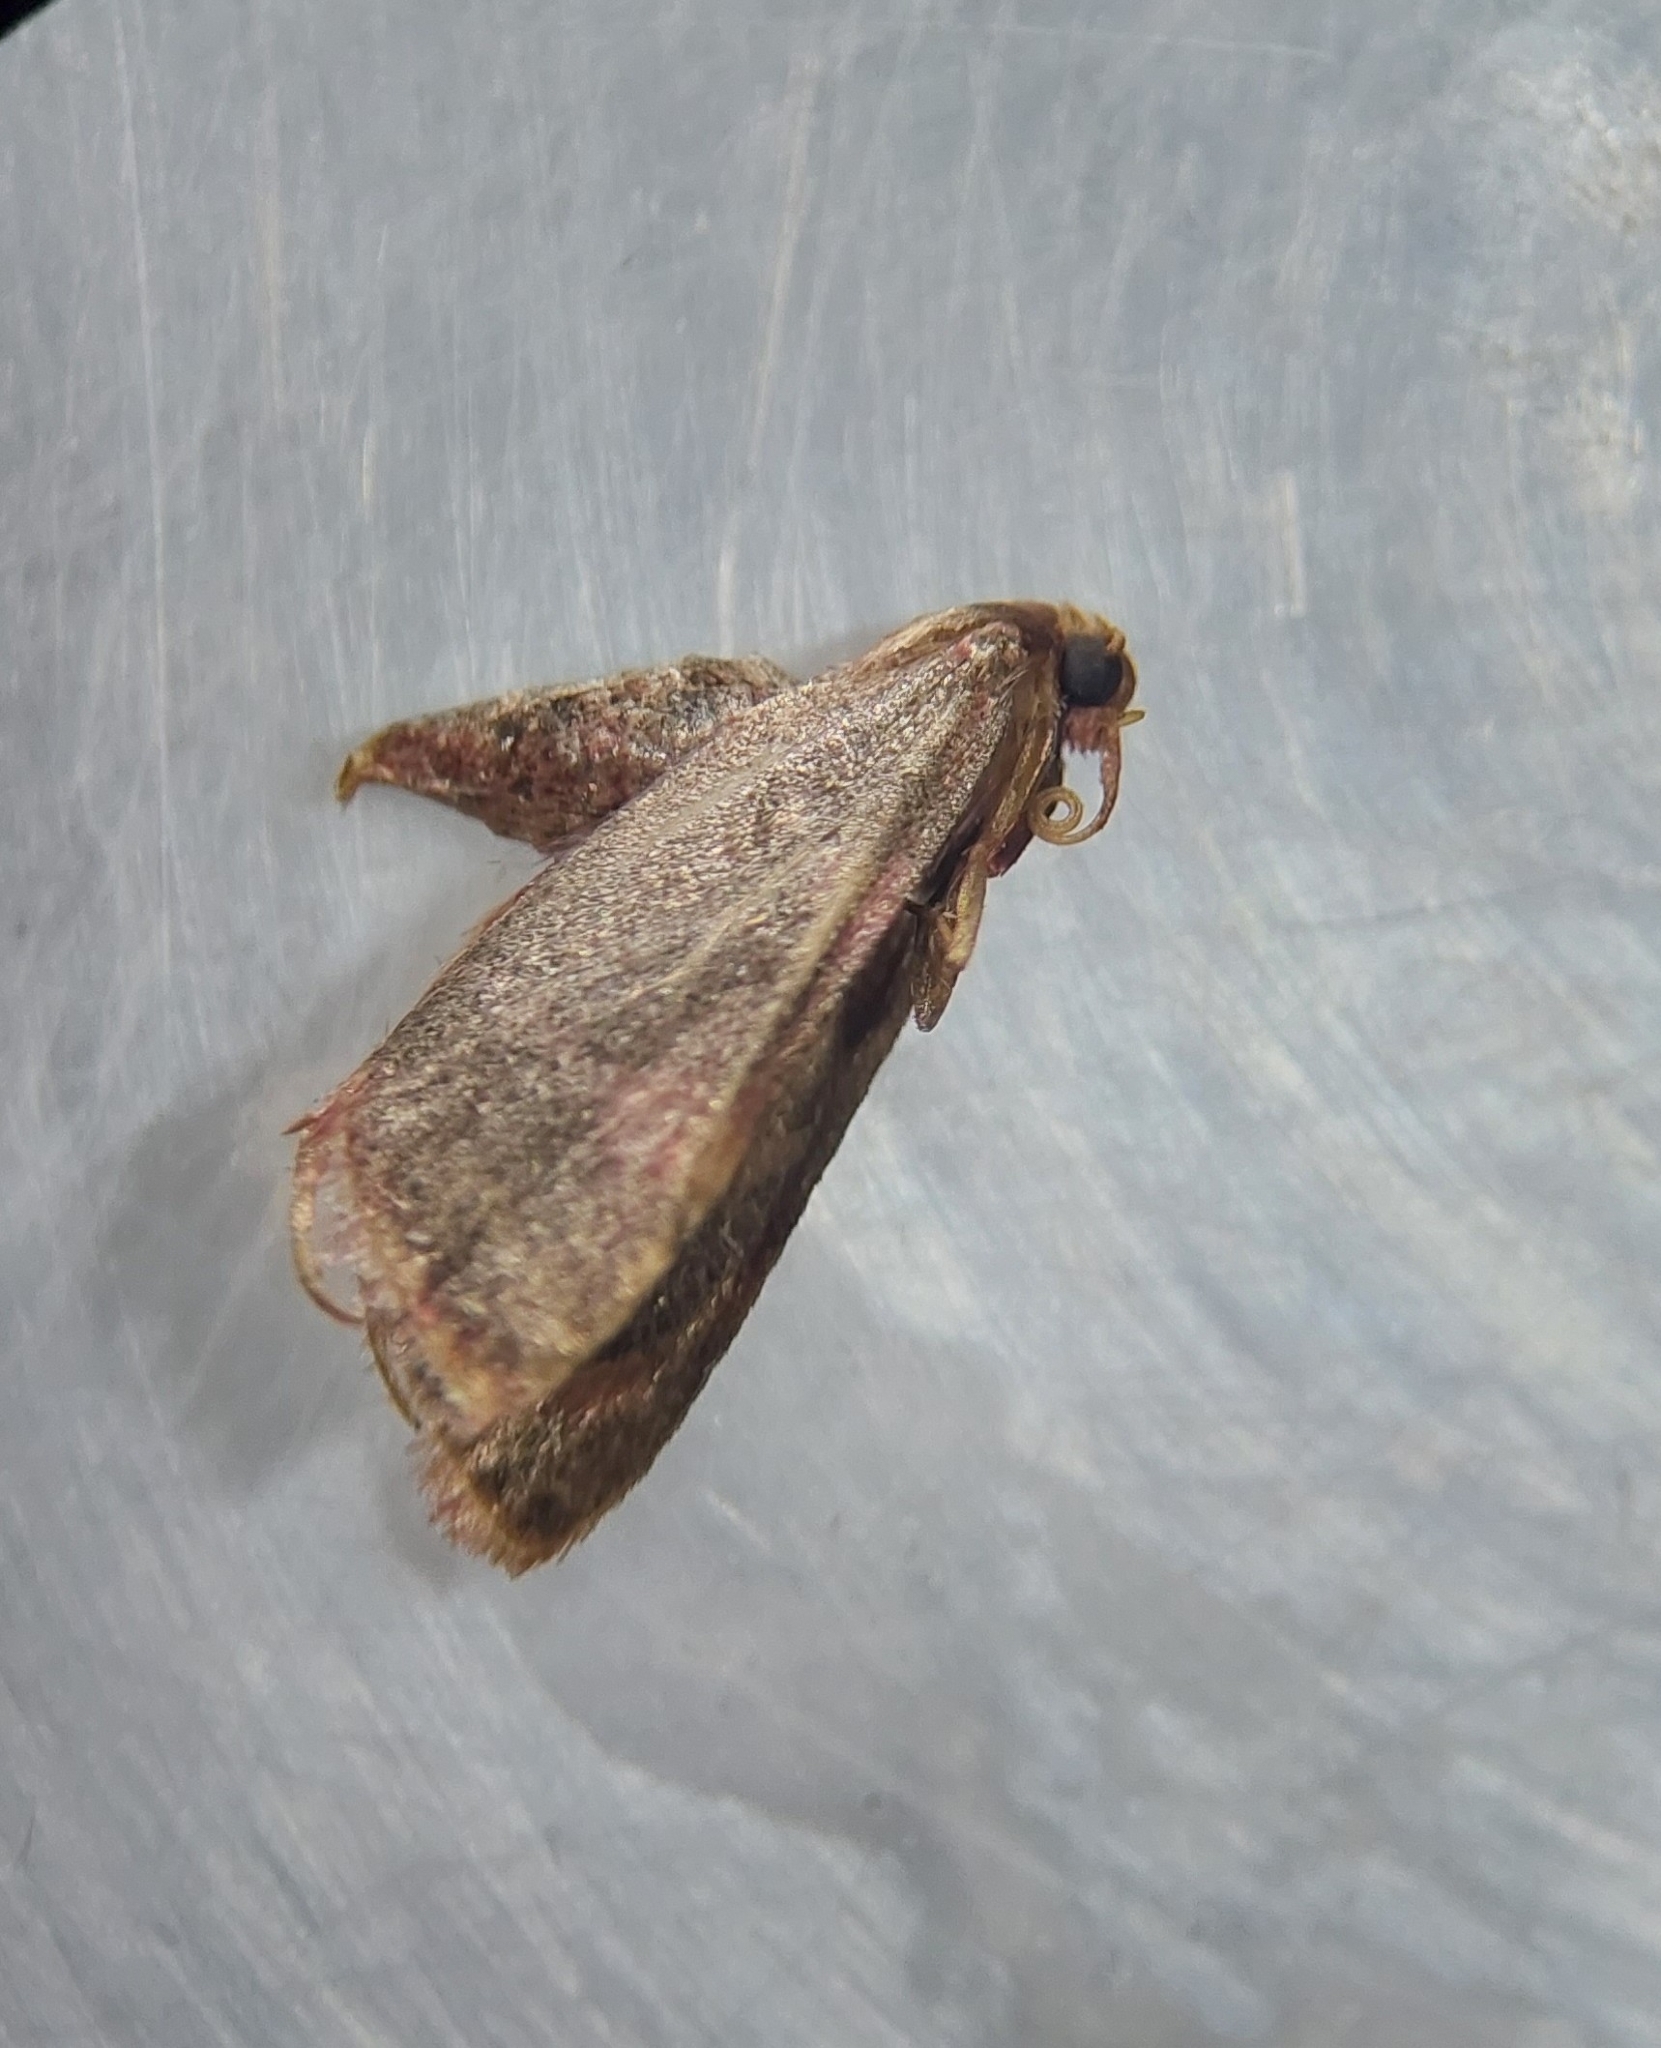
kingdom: Animalia
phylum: Arthropoda
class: Insecta
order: Lepidoptera
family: Pyralidae
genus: Hypsopygia
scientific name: Hypsopygia costalis
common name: Gold triangle
